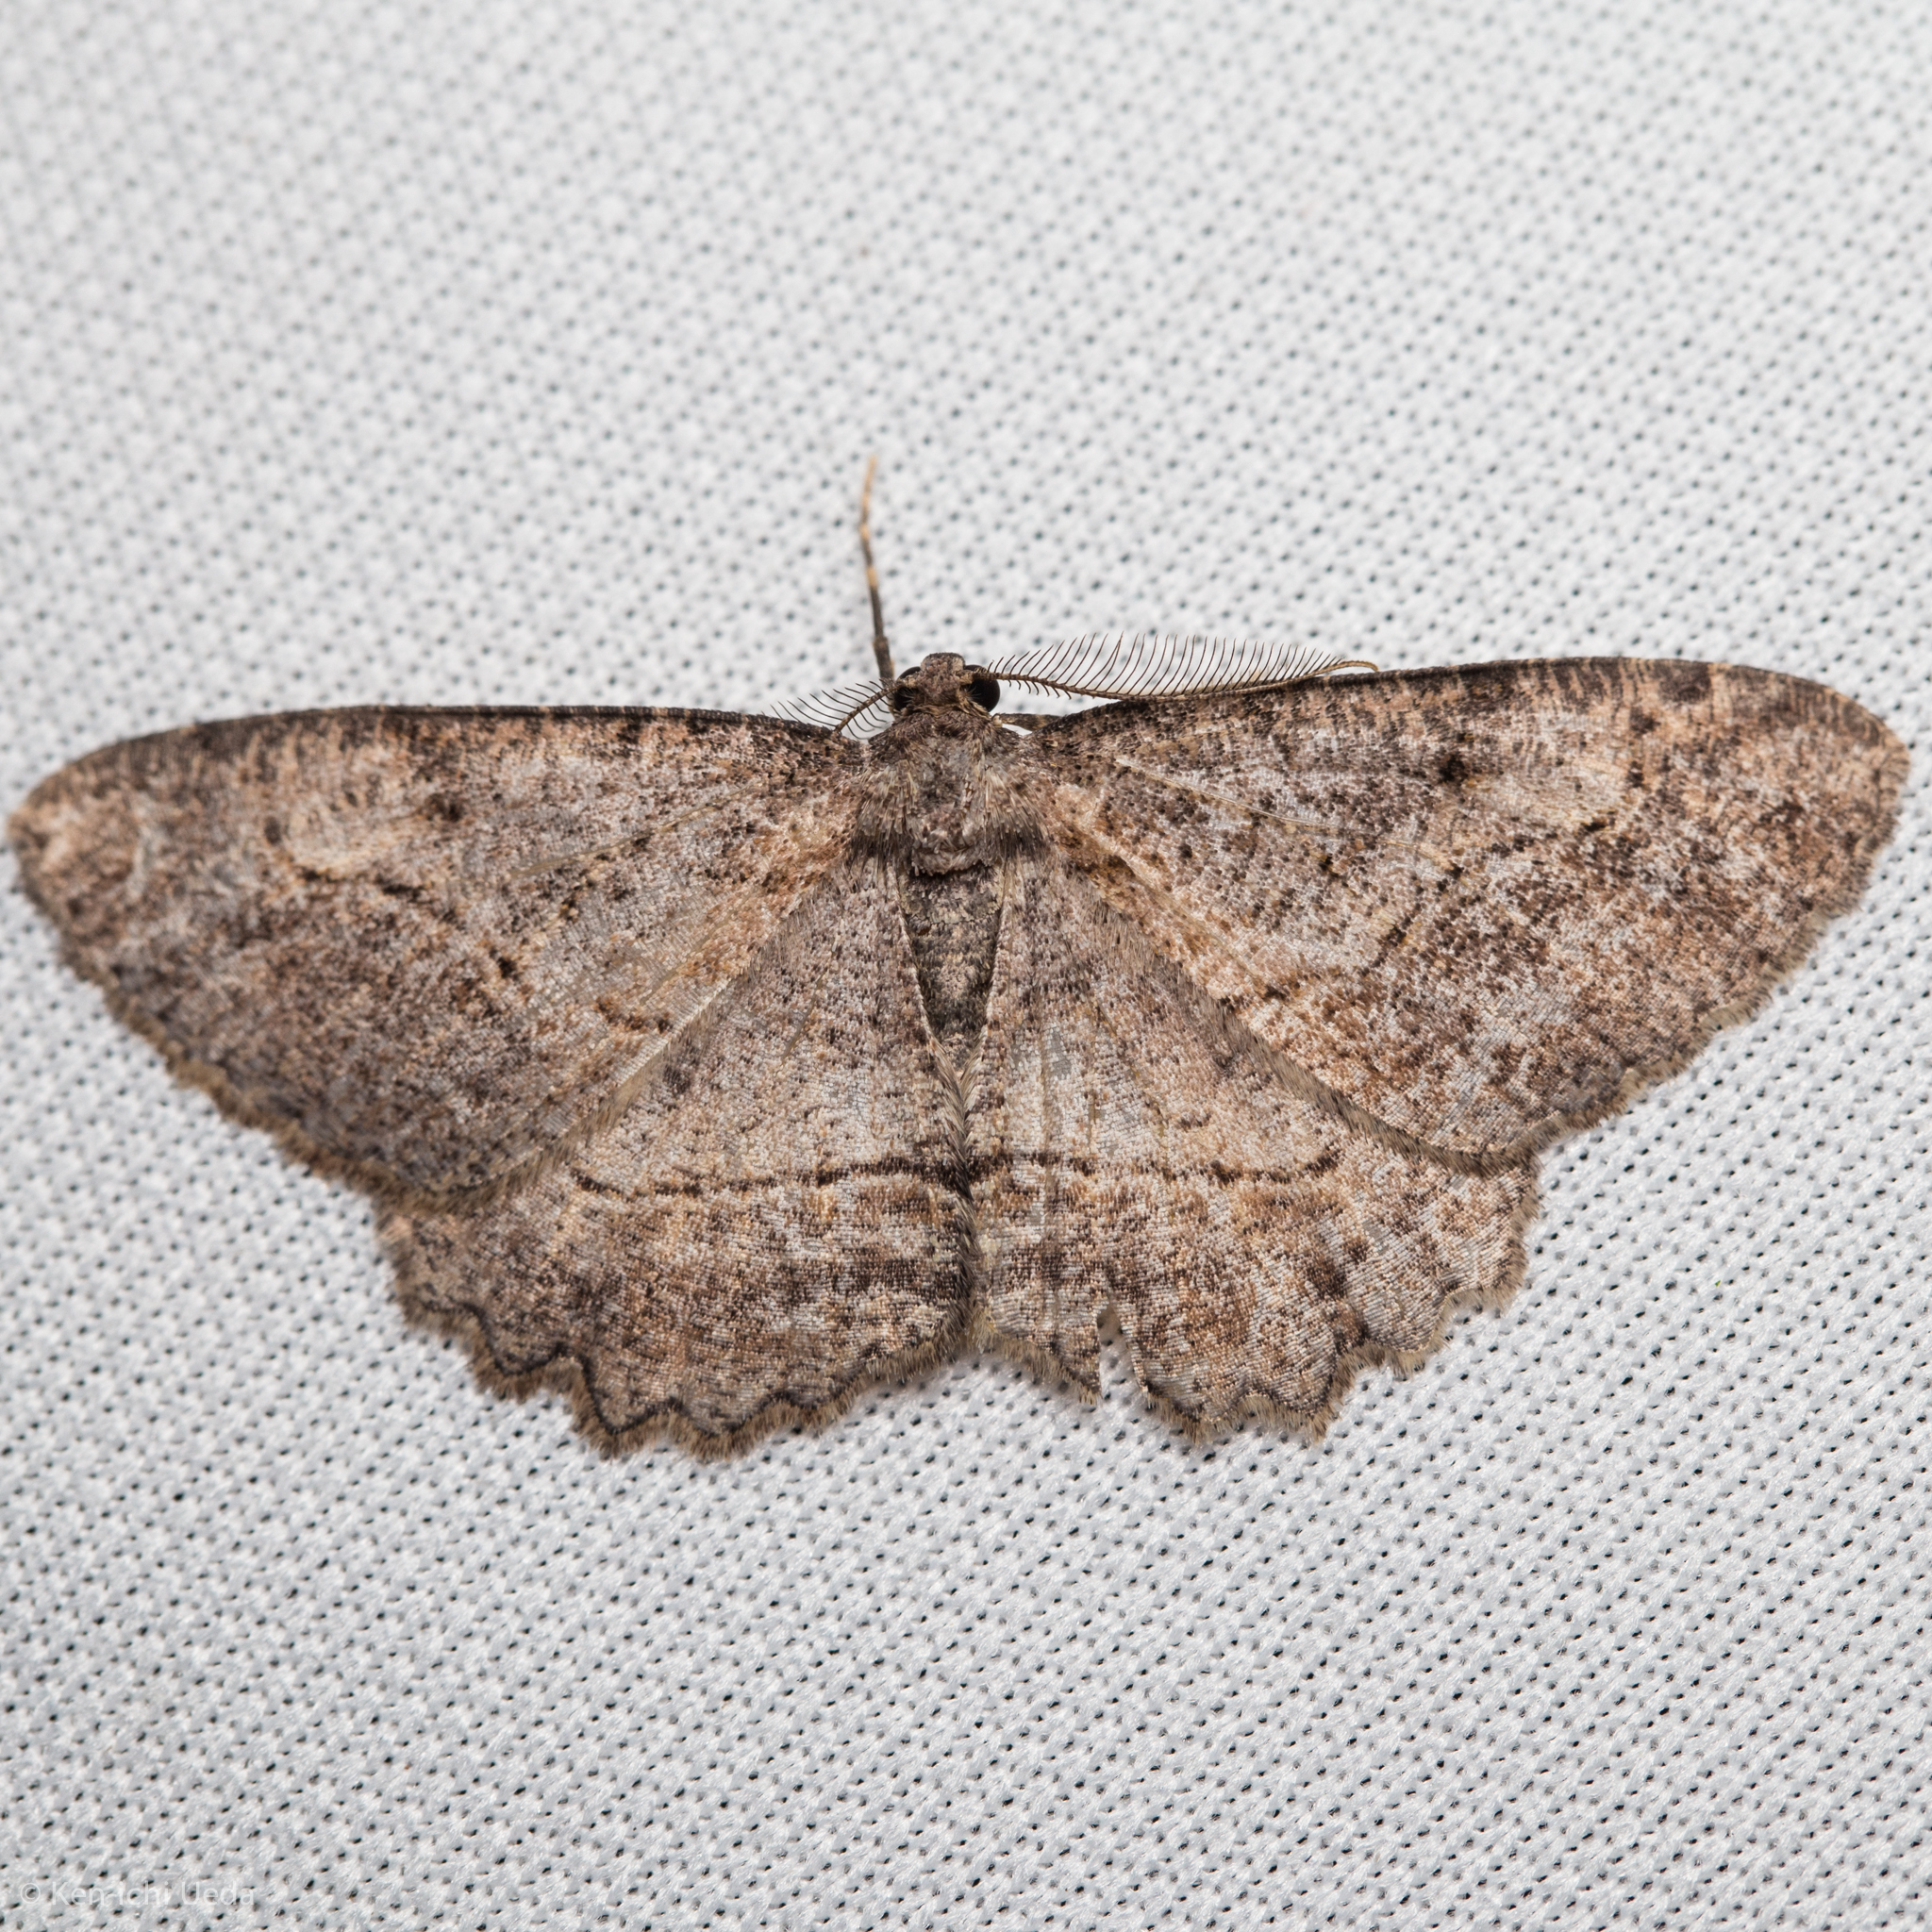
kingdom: Animalia
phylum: Arthropoda
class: Insecta
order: Lepidoptera
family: Geometridae
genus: Neoalcis
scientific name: Neoalcis californiaria
